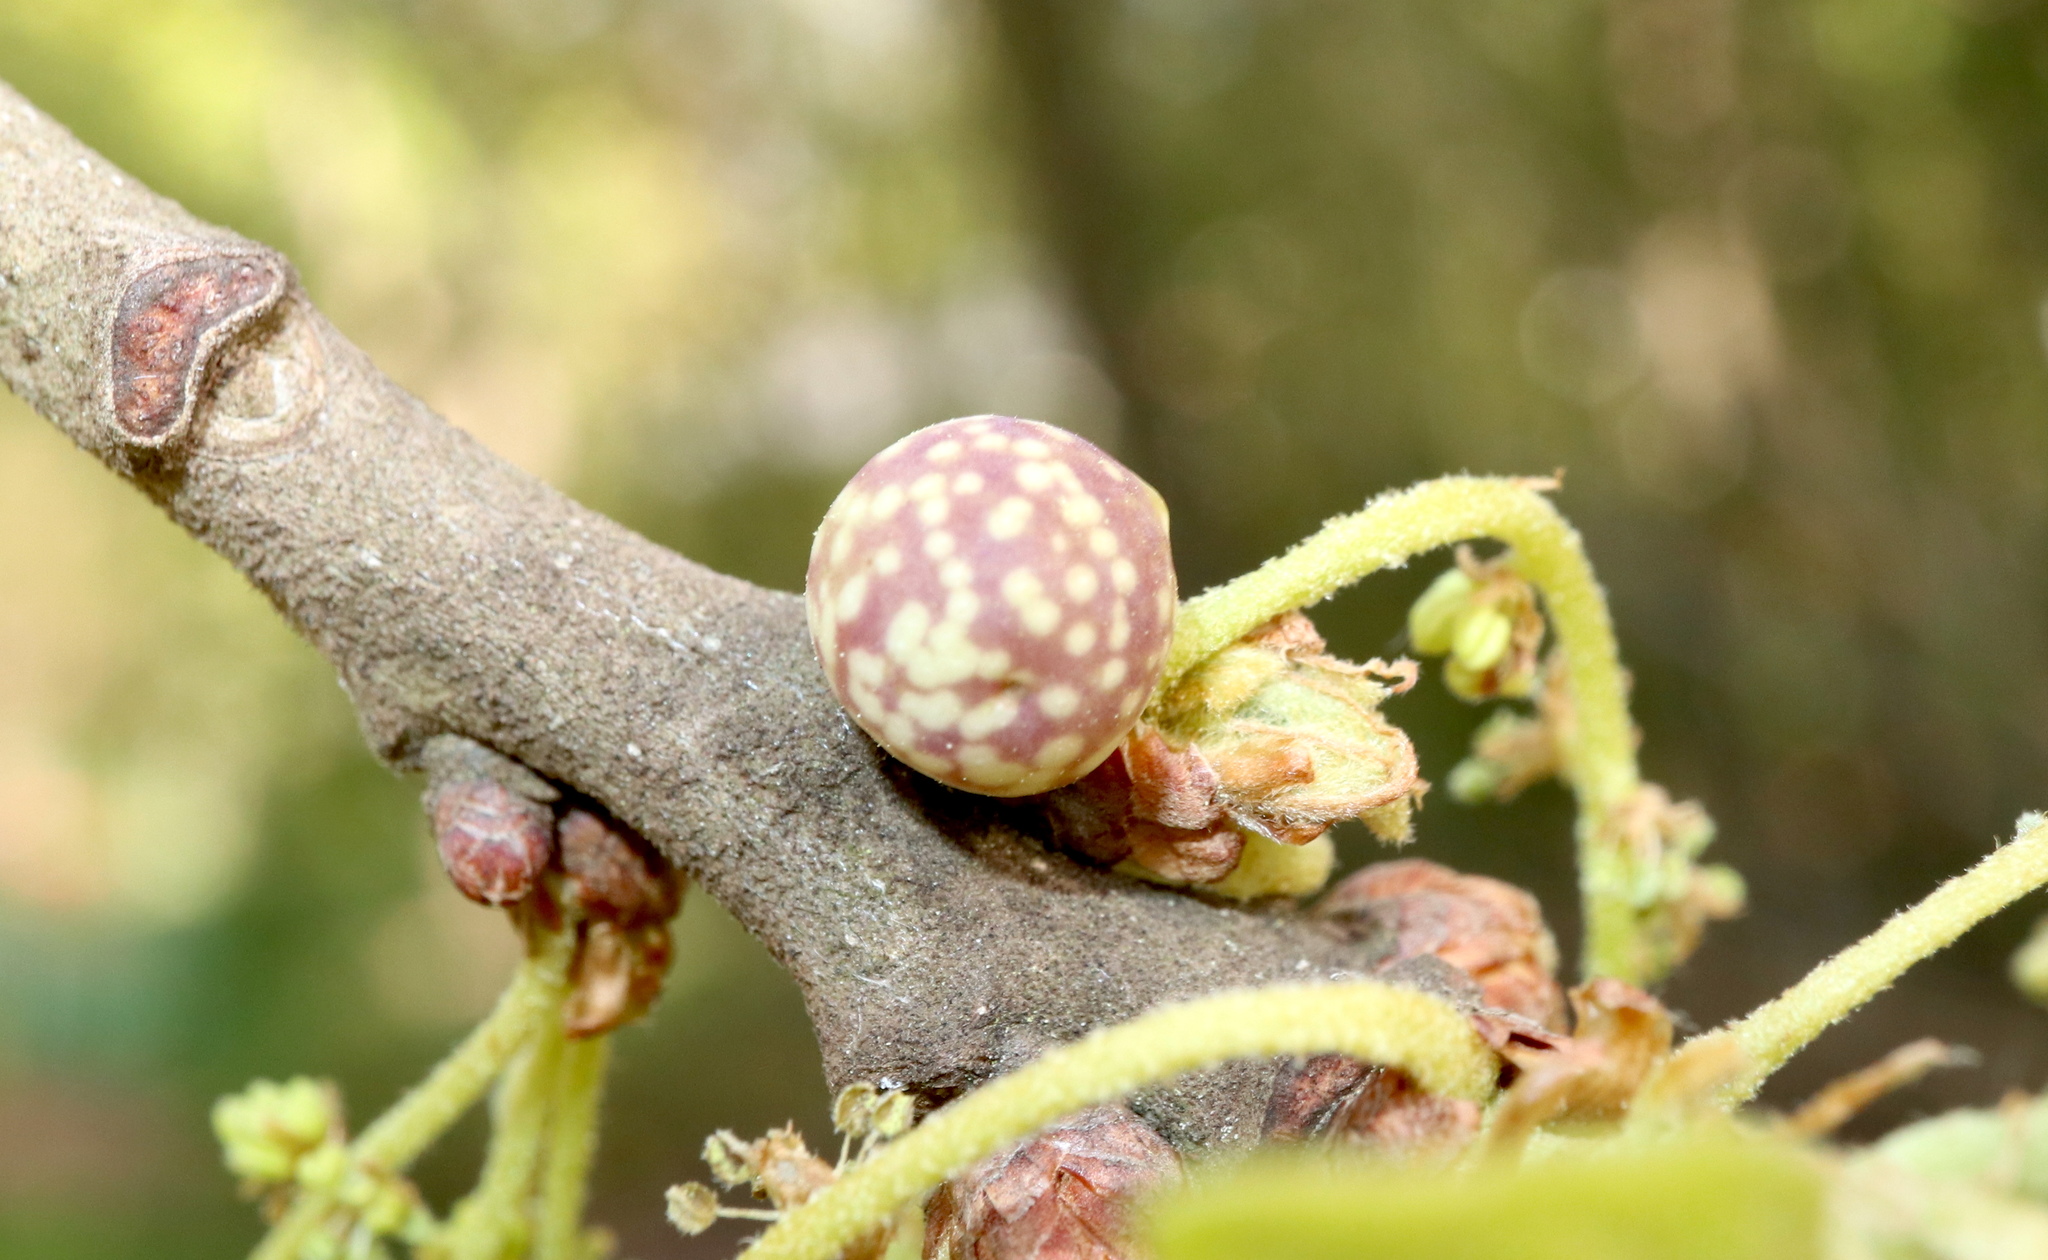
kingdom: Animalia
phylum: Arthropoda
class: Insecta
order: Hymenoptera
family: Cynipidae
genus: Andricus
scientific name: Andricus
